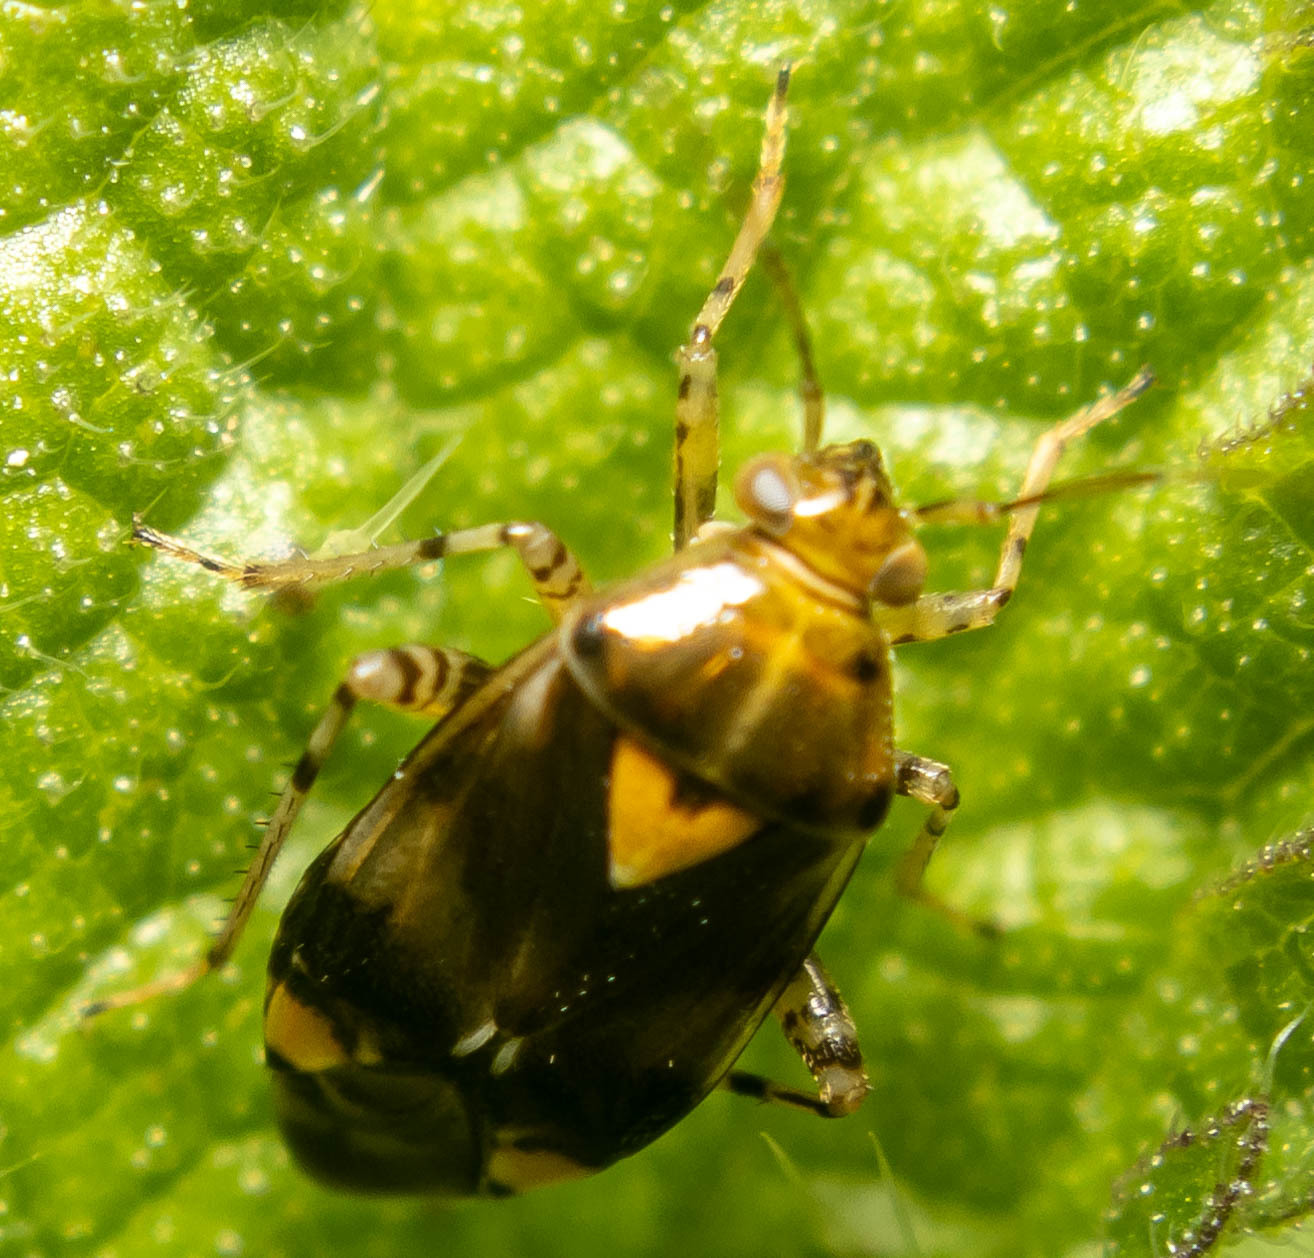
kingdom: Animalia
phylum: Arthropoda
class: Insecta
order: Hemiptera
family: Miridae
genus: Liocoris
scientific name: Liocoris tripustulatus
